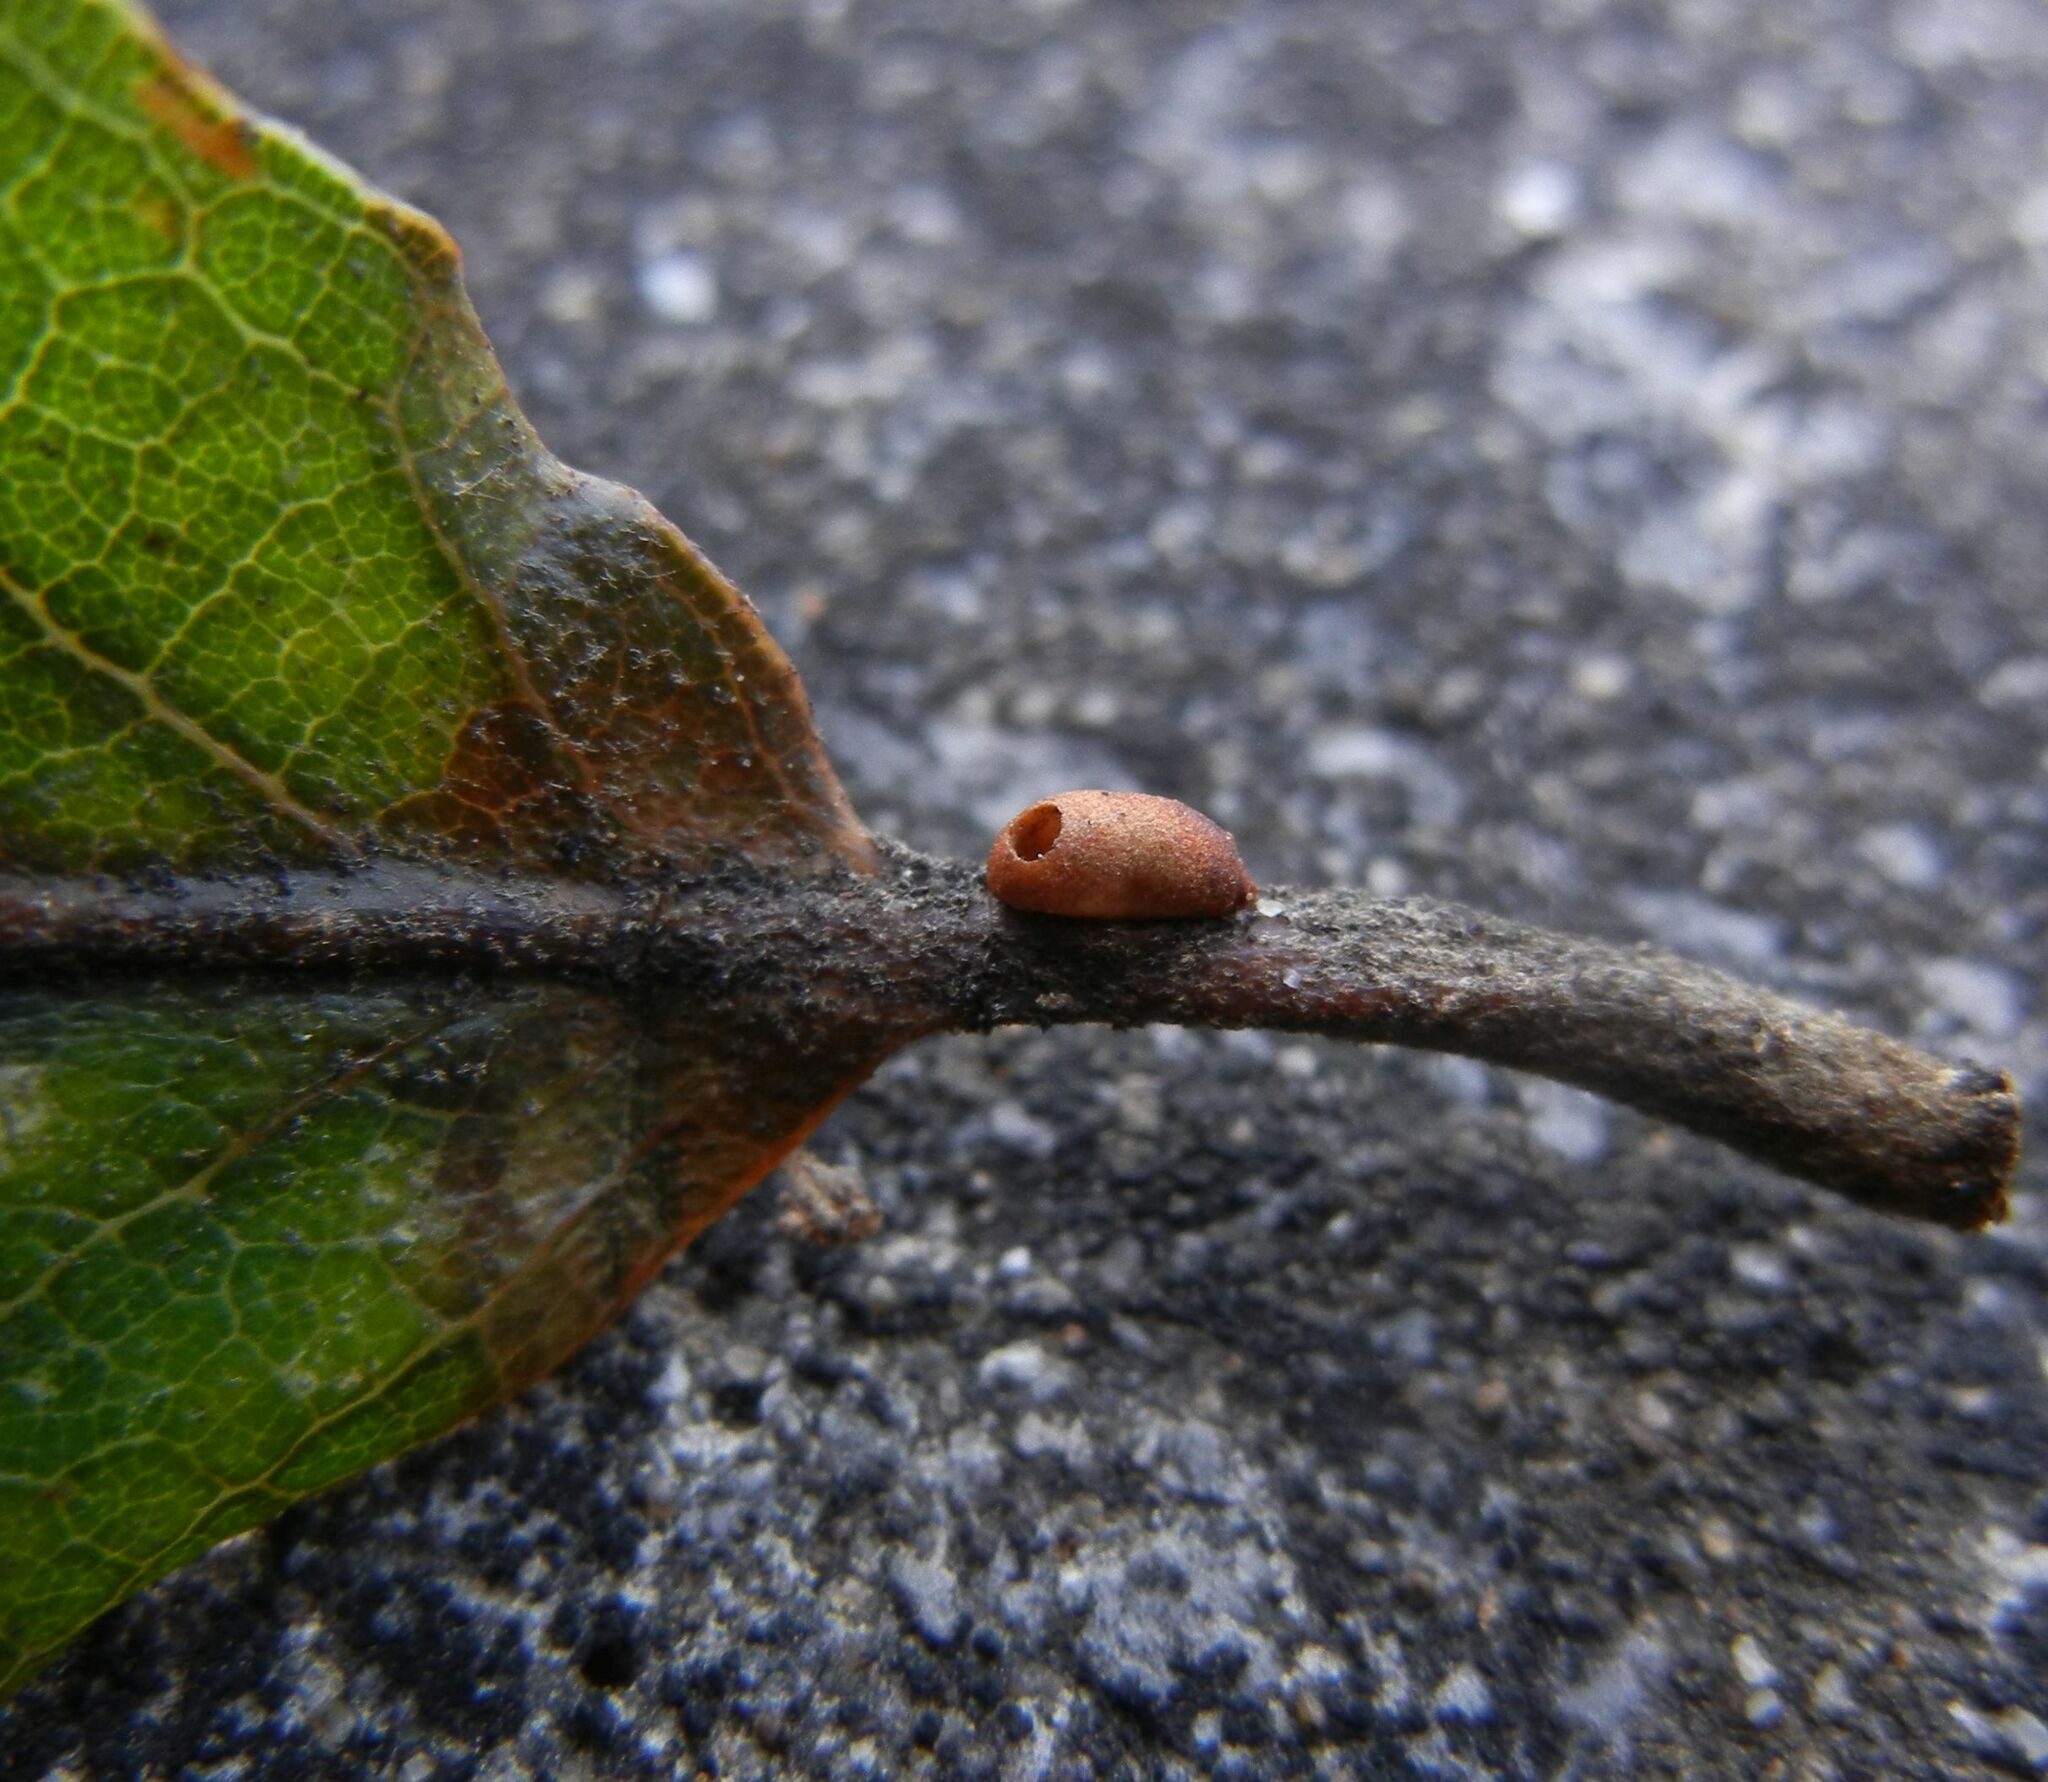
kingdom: Animalia
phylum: Arthropoda
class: Insecta
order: Hymenoptera
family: Cynipidae
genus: Neuroterus
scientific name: Neuroterus saliens
